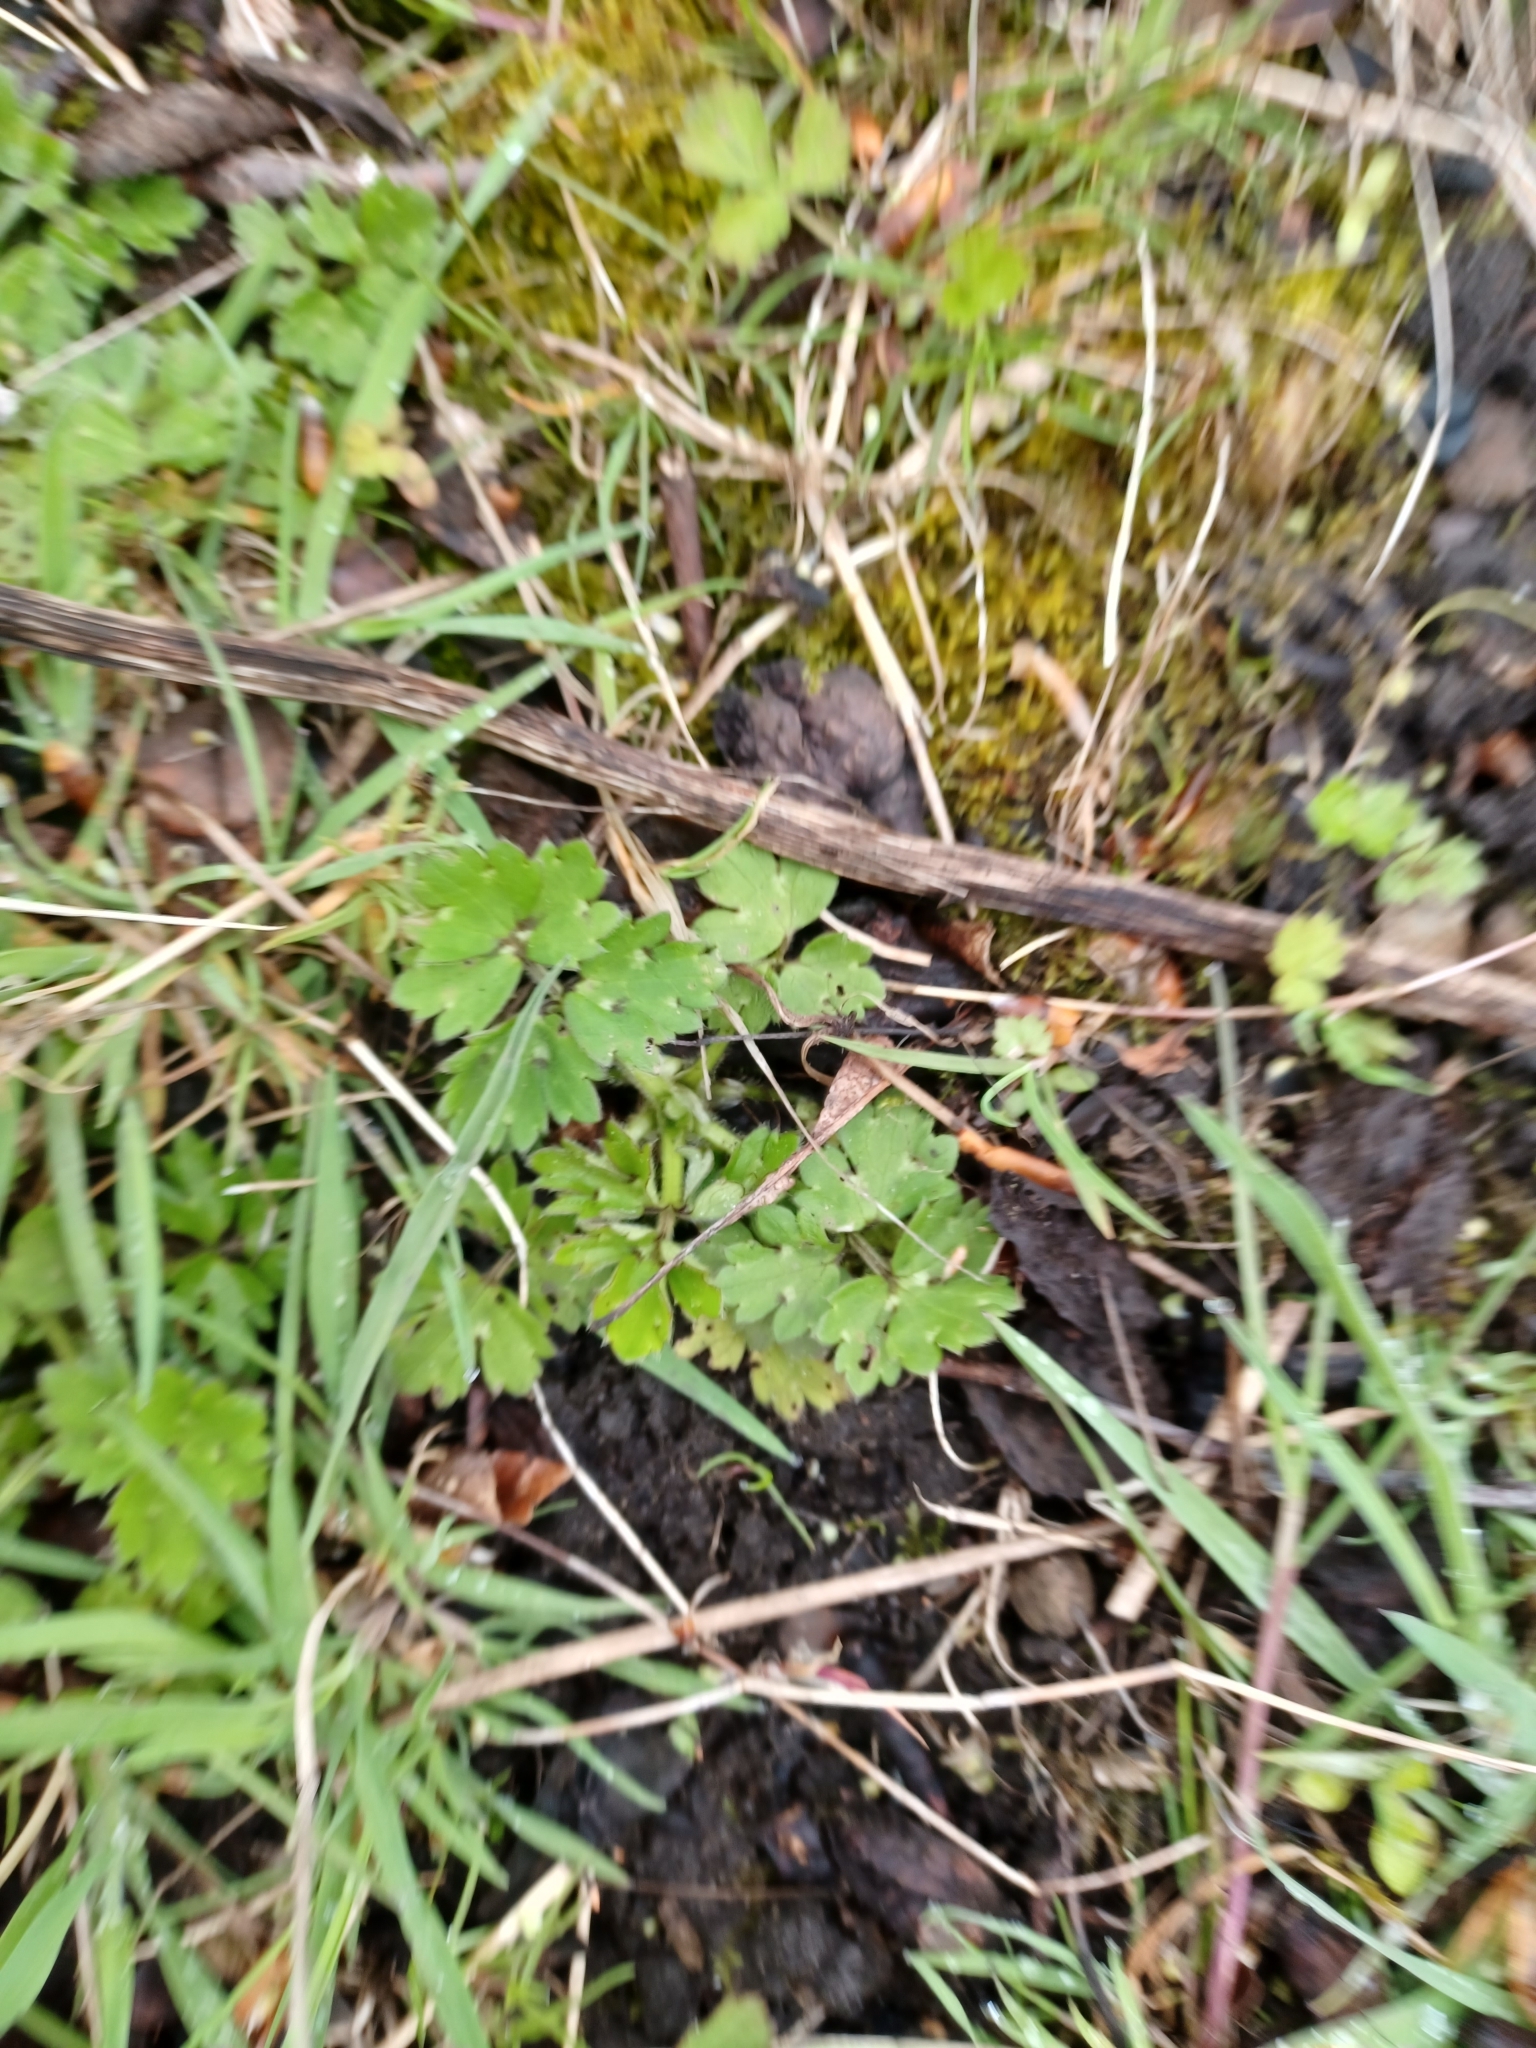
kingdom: Plantae
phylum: Tracheophyta
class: Magnoliopsida
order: Ranunculales
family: Ranunculaceae
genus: Ranunculus
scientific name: Ranunculus repens
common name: Creeping buttercup
